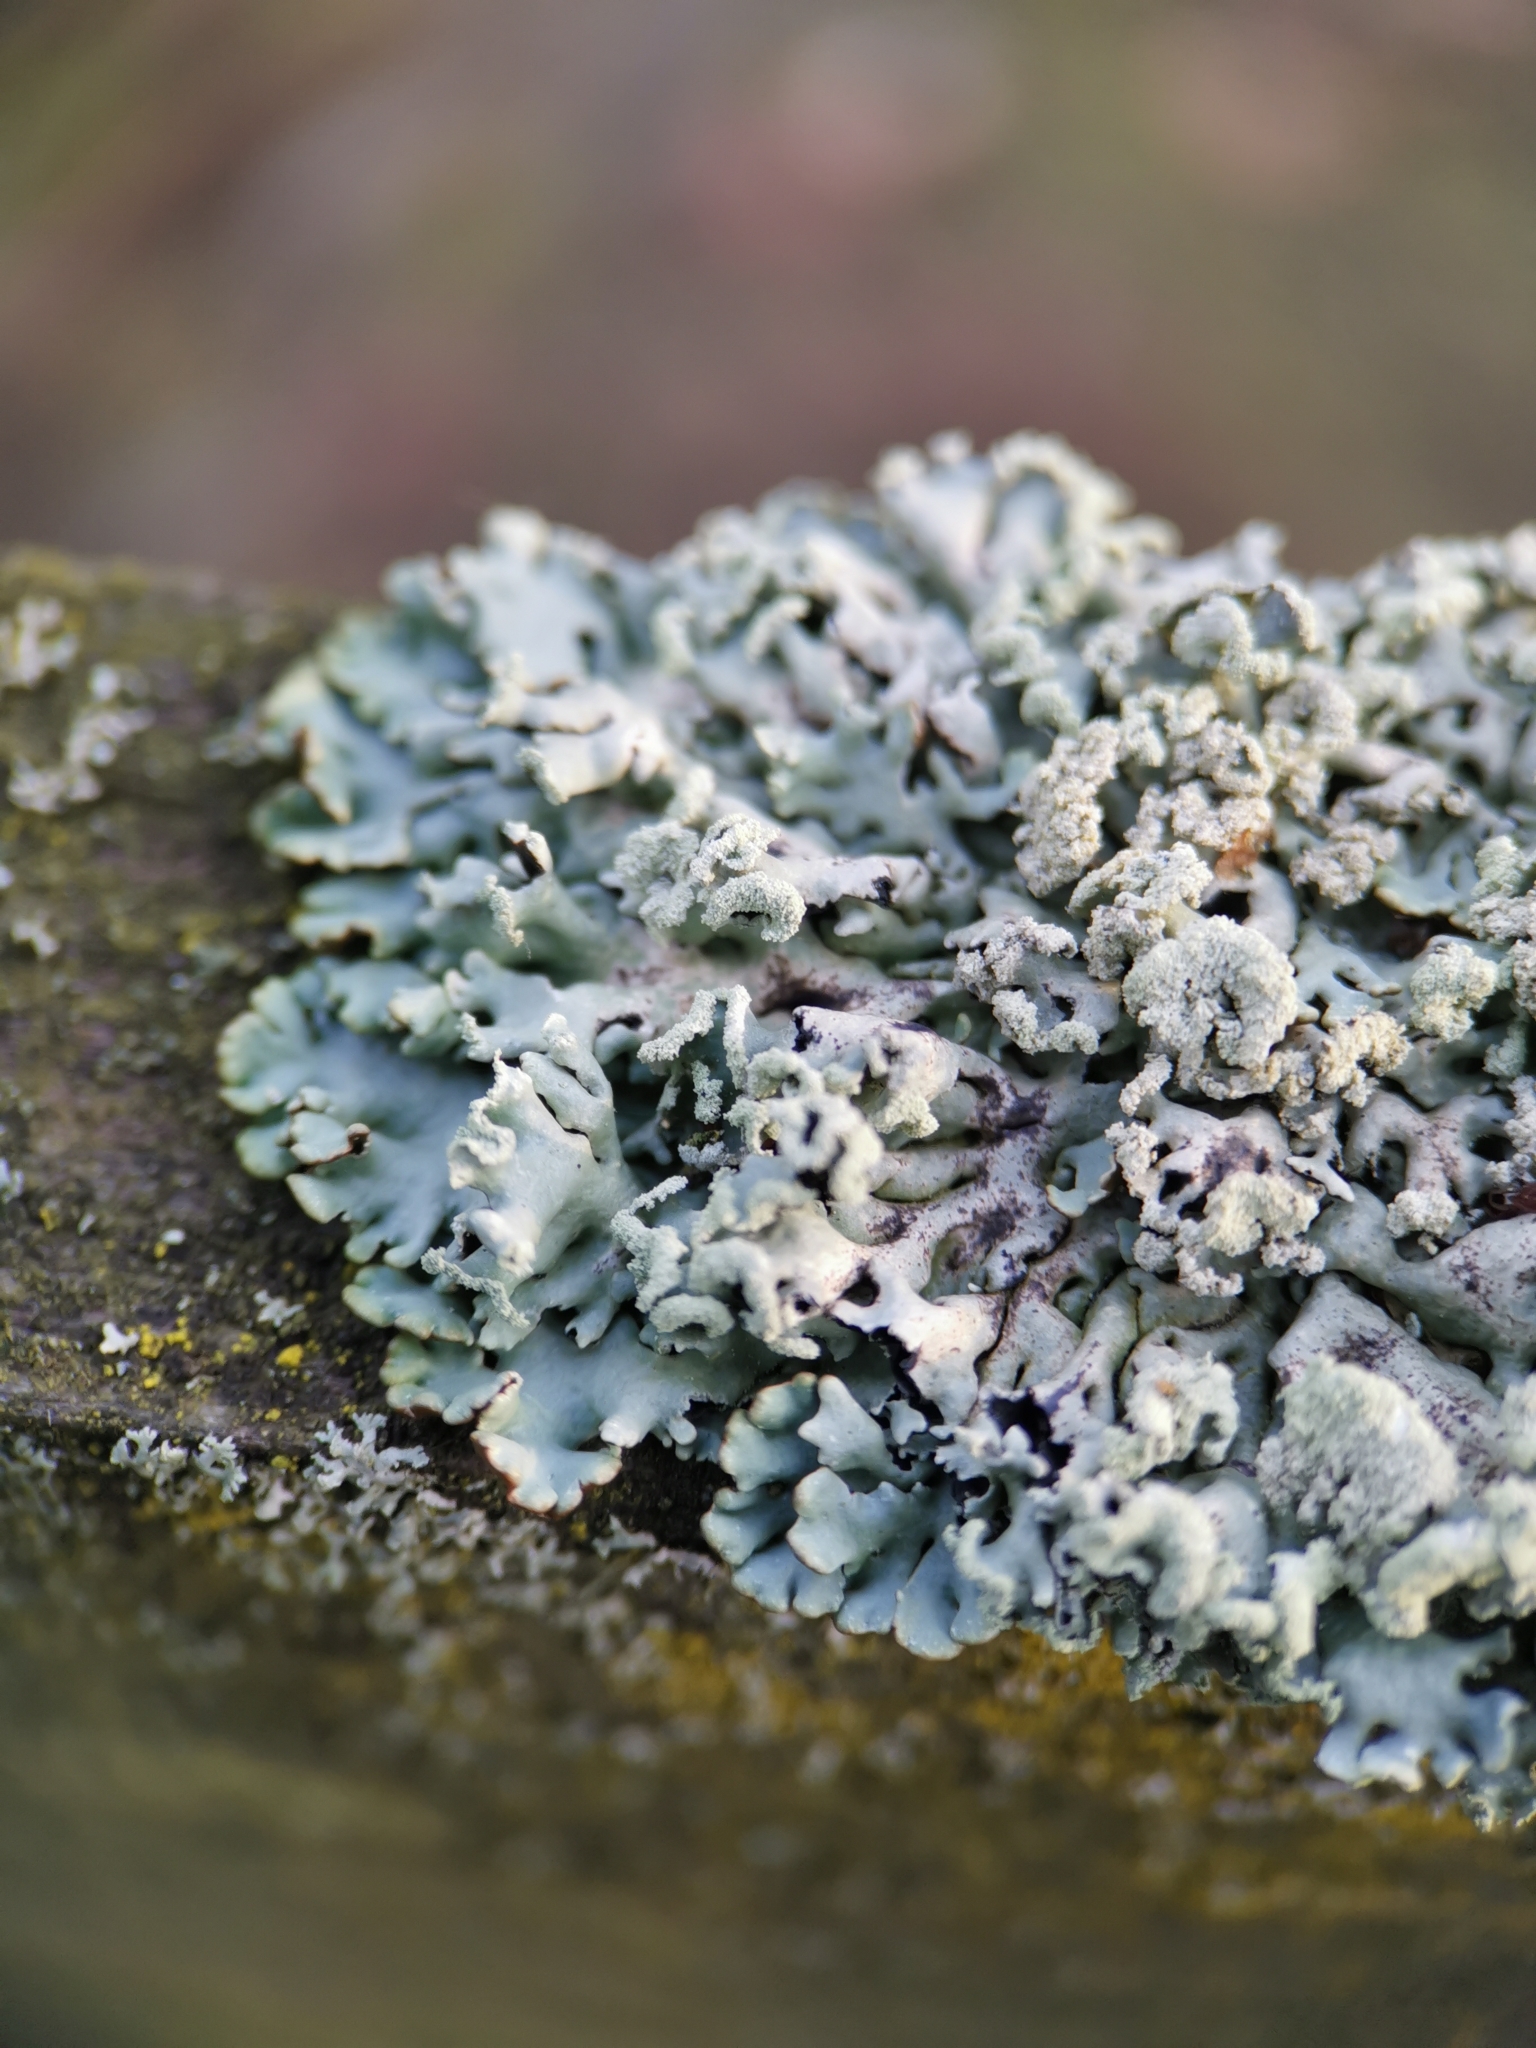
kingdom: Fungi
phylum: Ascomycota
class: Lecanoromycetes
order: Lecanorales
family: Parmeliaceae
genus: Hypogymnia
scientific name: Hypogymnia physodes
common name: Dark crottle
